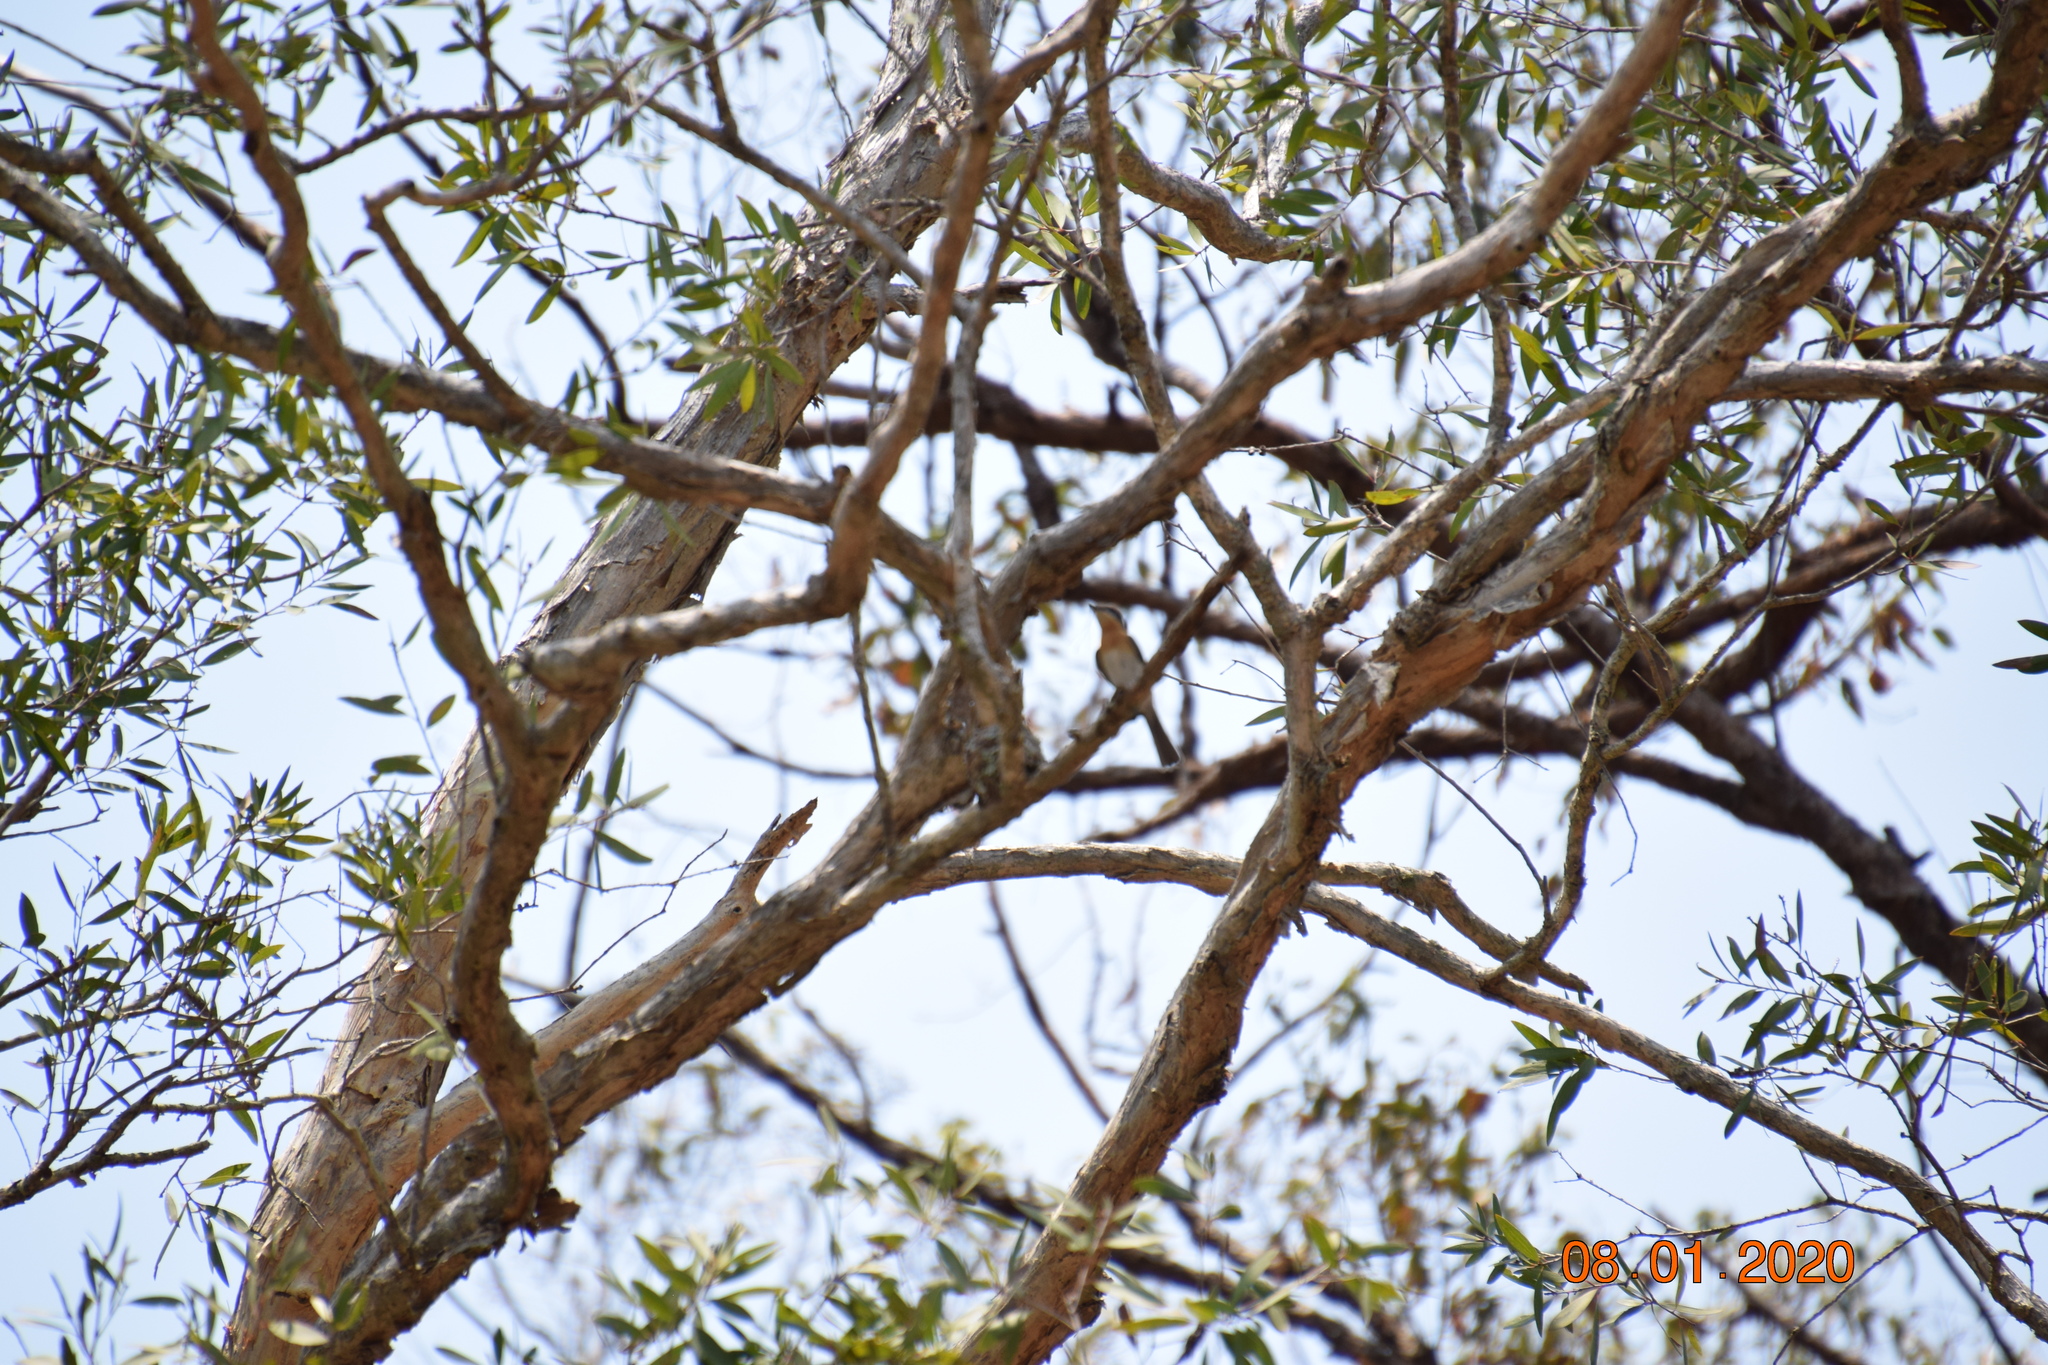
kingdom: Animalia
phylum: Chordata
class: Aves
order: Passeriformes
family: Monarchidae
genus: Myiagra
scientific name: Myiagra rubecula
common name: Leaden flycatcher
